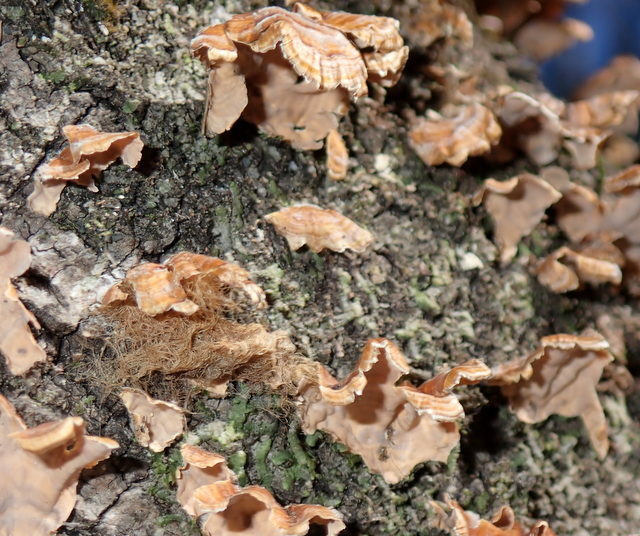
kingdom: Fungi
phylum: Basidiomycota
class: Agaricomycetes
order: Russulales
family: Stereaceae
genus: Stereum
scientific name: Stereum complicatum
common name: Crowded parchment
